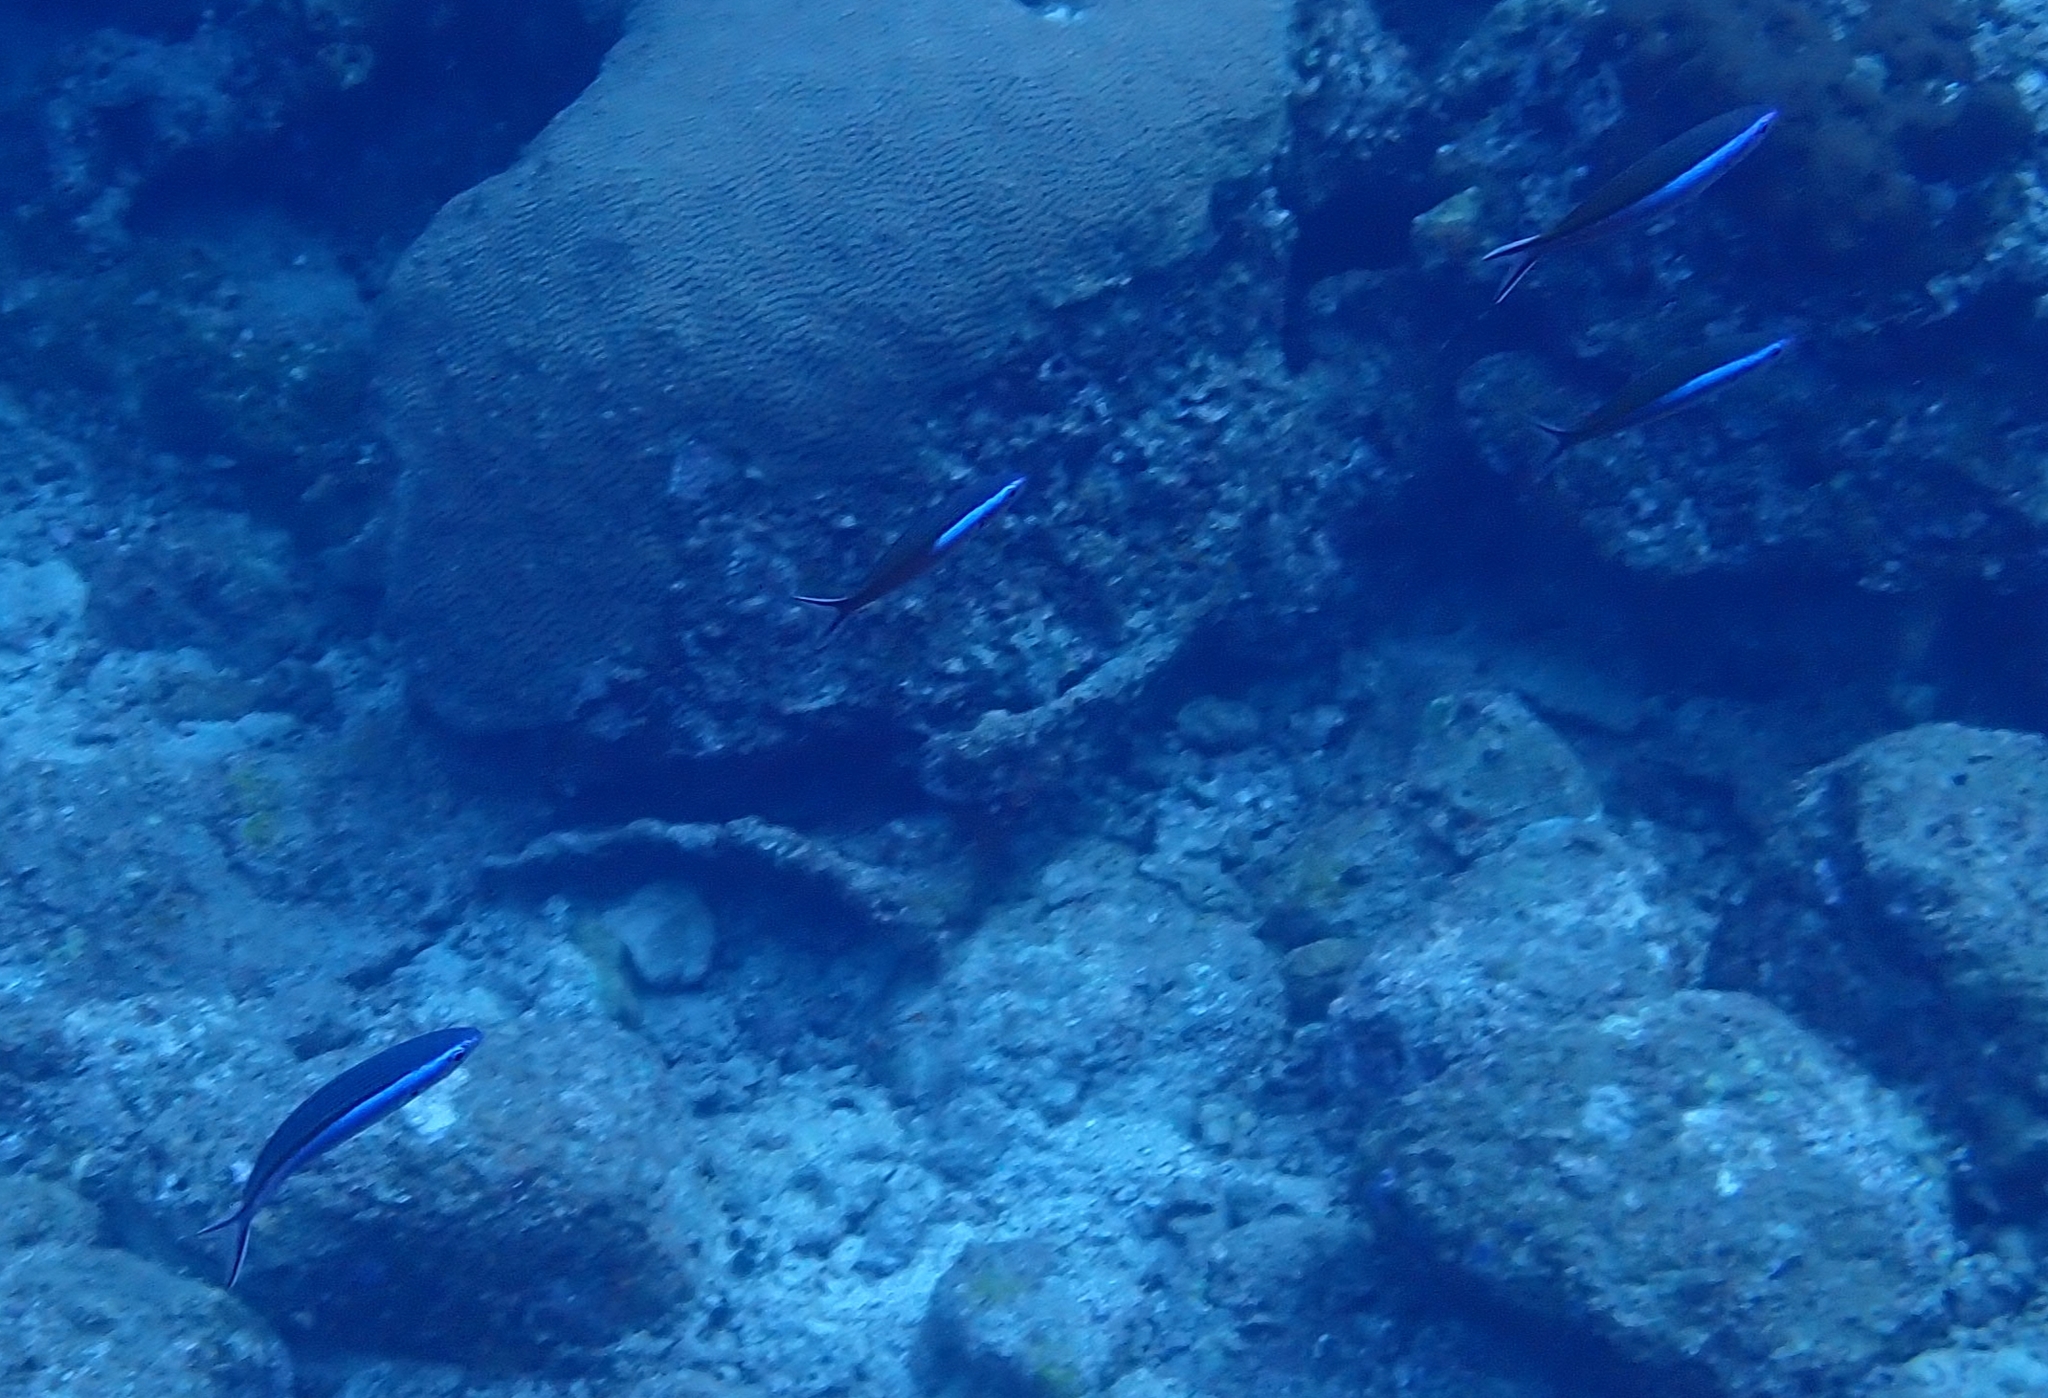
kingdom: Animalia
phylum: Chordata
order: Perciformes
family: Caesionidae
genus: Pterocaesio
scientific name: Pterocaesio tile
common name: Dark-banded fusilier
